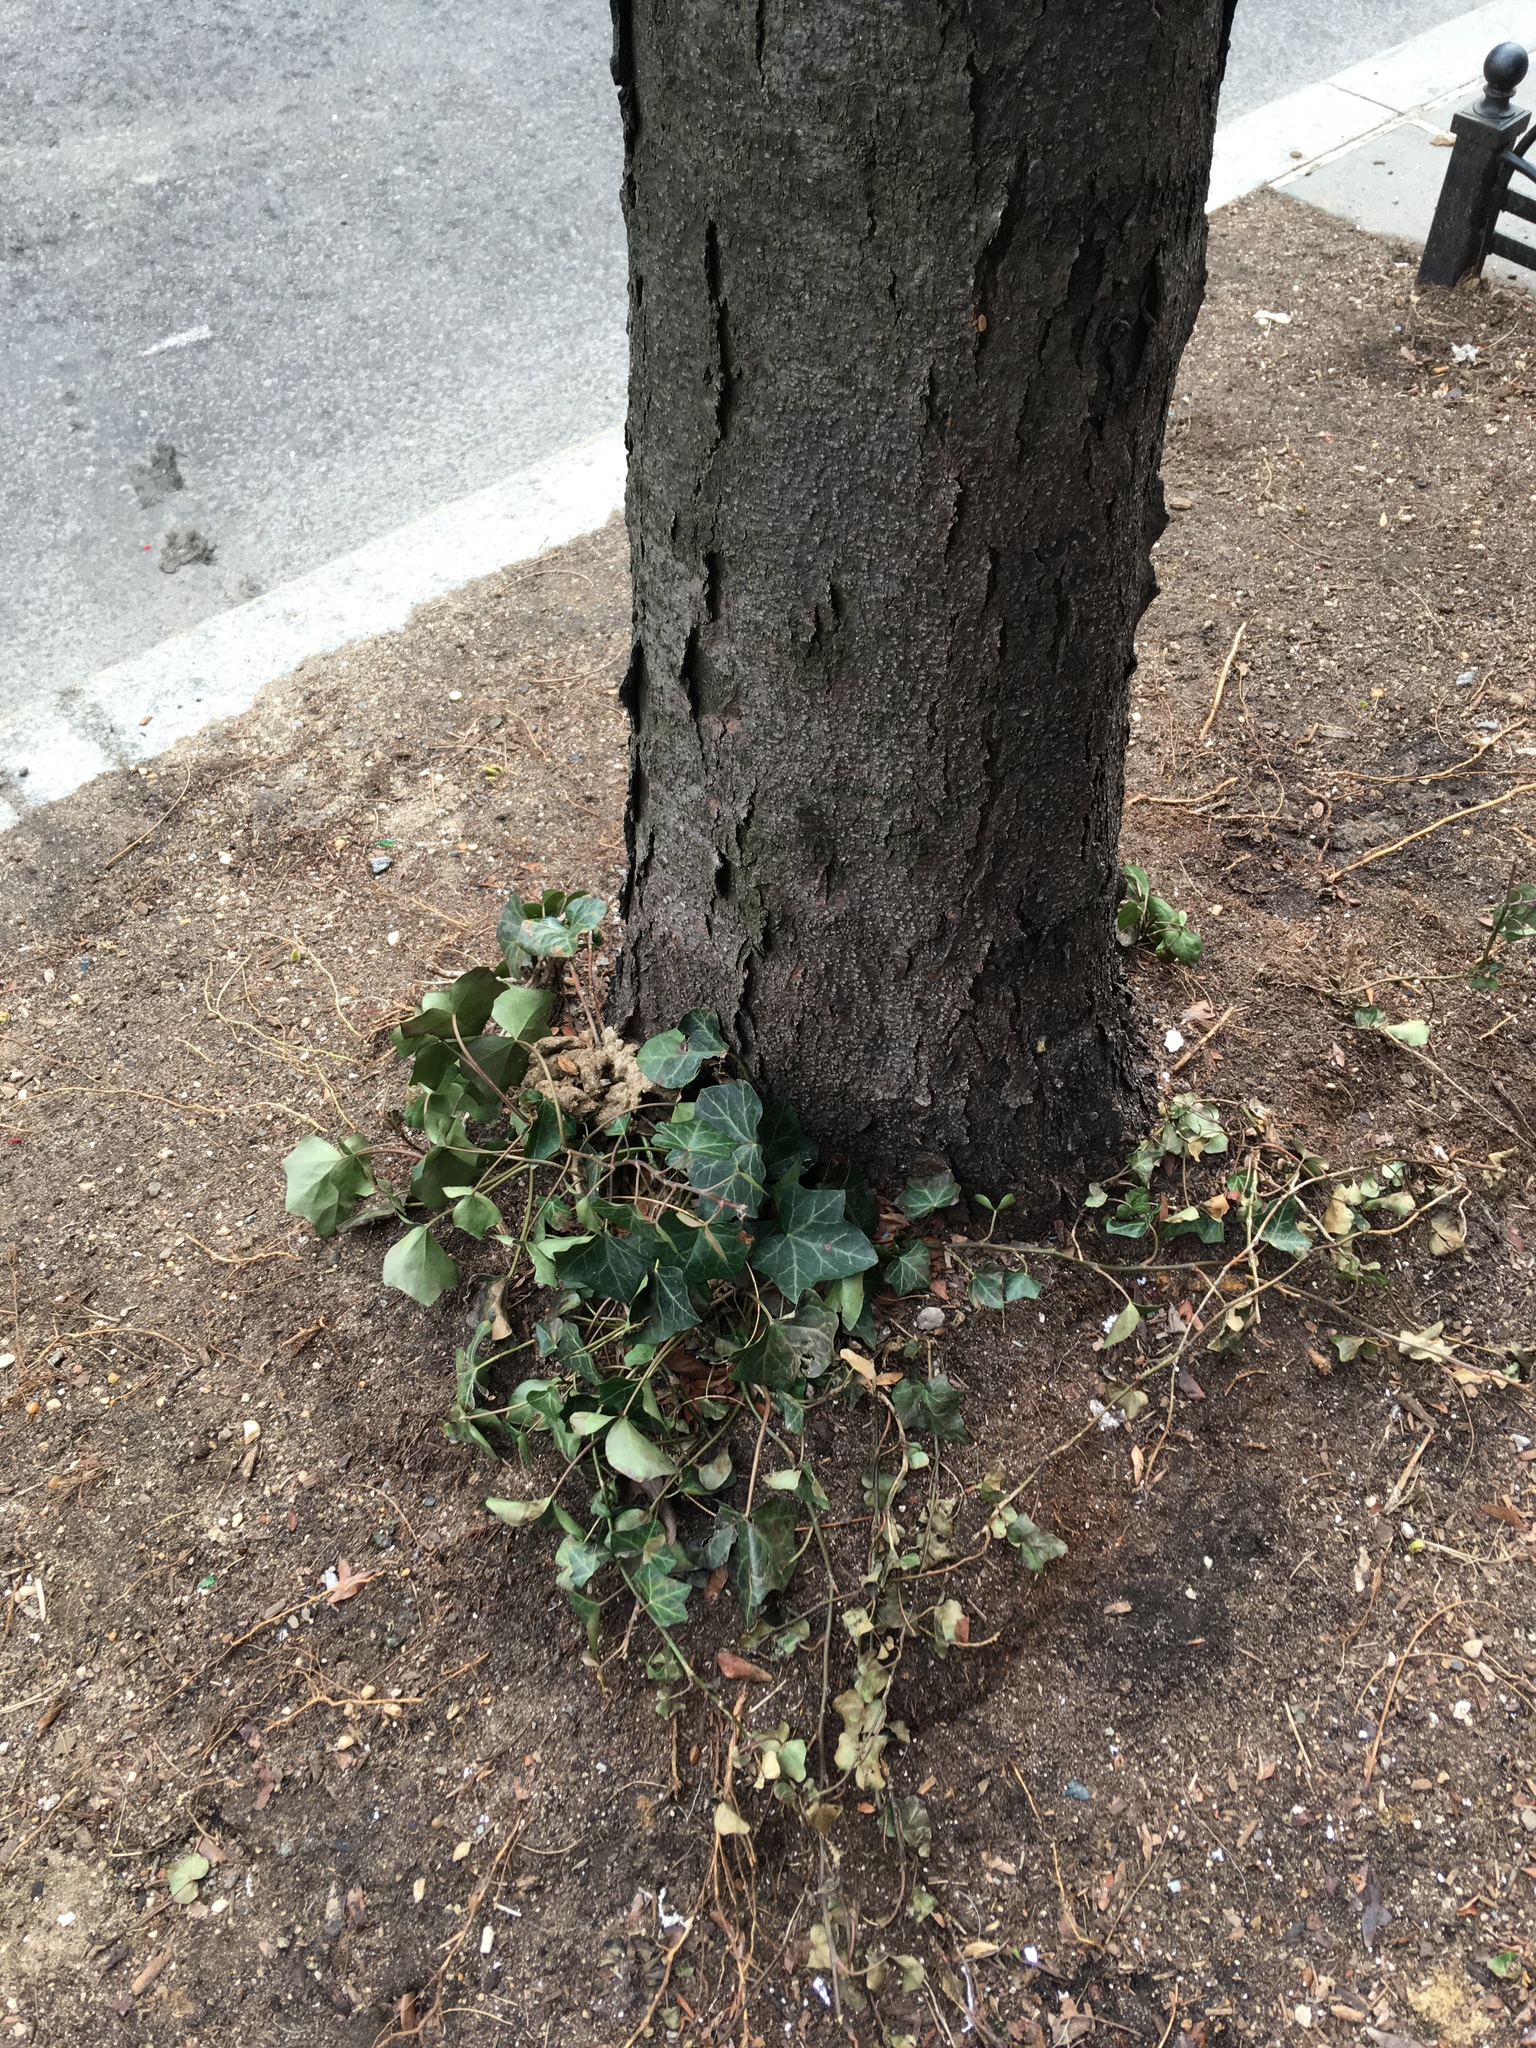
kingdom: Plantae
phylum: Tracheophyta
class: Magnoliopsida
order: Apiales
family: Araliaceae
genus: Hedera
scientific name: Hedera helix
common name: Ivy
